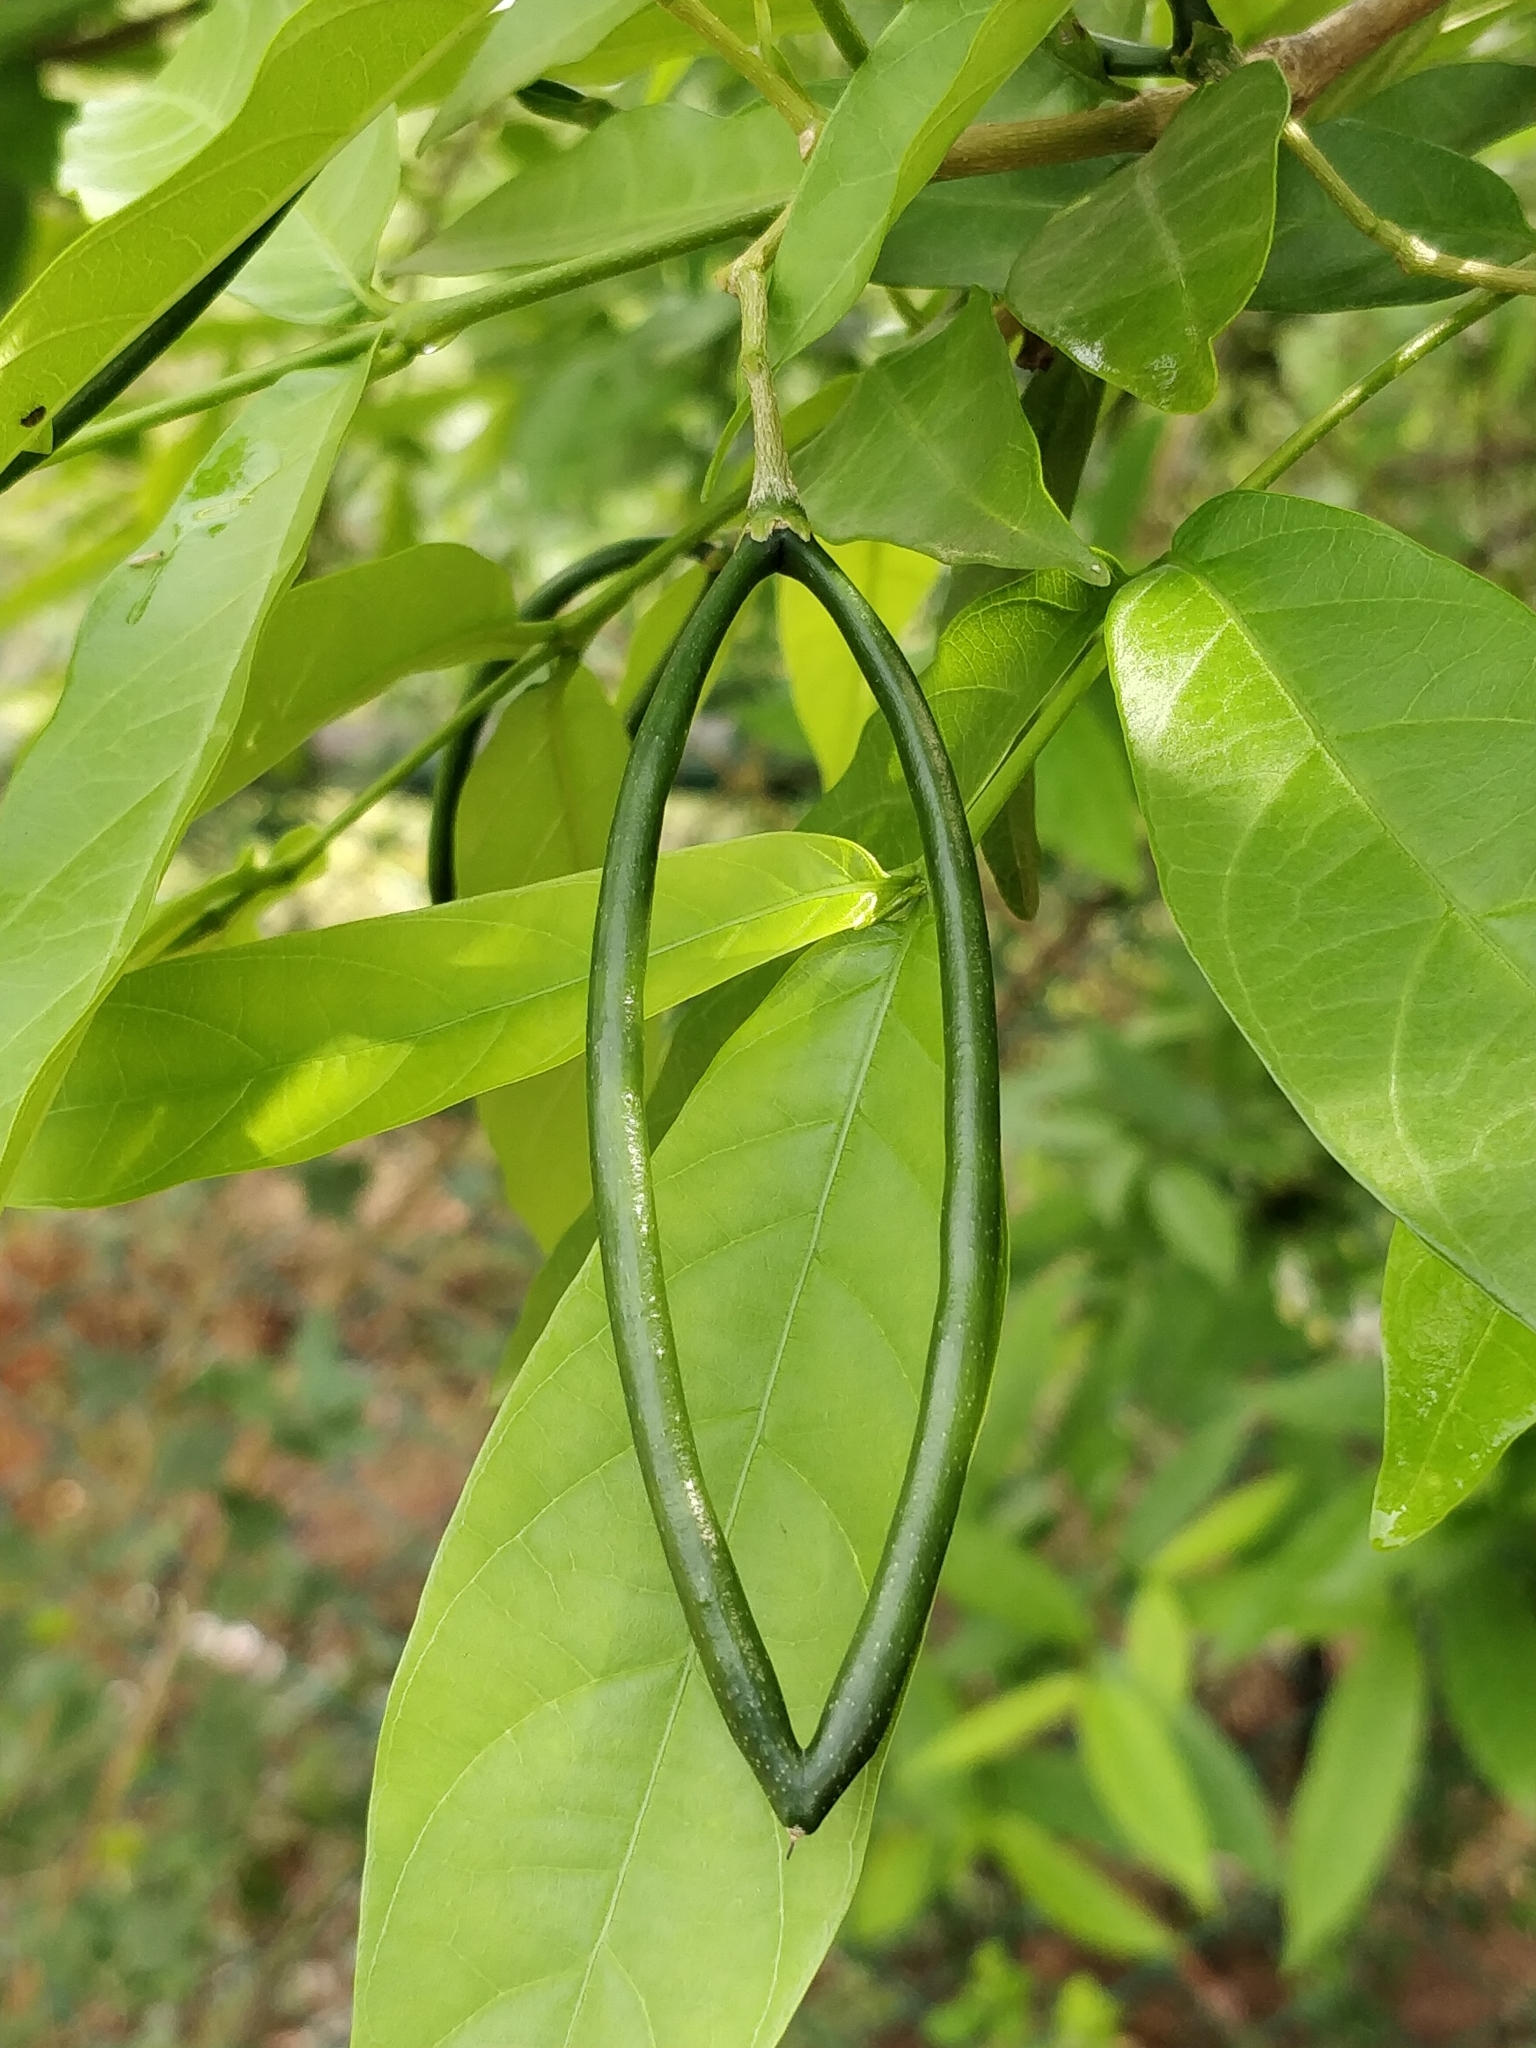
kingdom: Plantae
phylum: Tracheophyta
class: Magnoliopsida
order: Gentianales
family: Apocynaceae
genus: Wrightia
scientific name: Wrightia tinctoria
